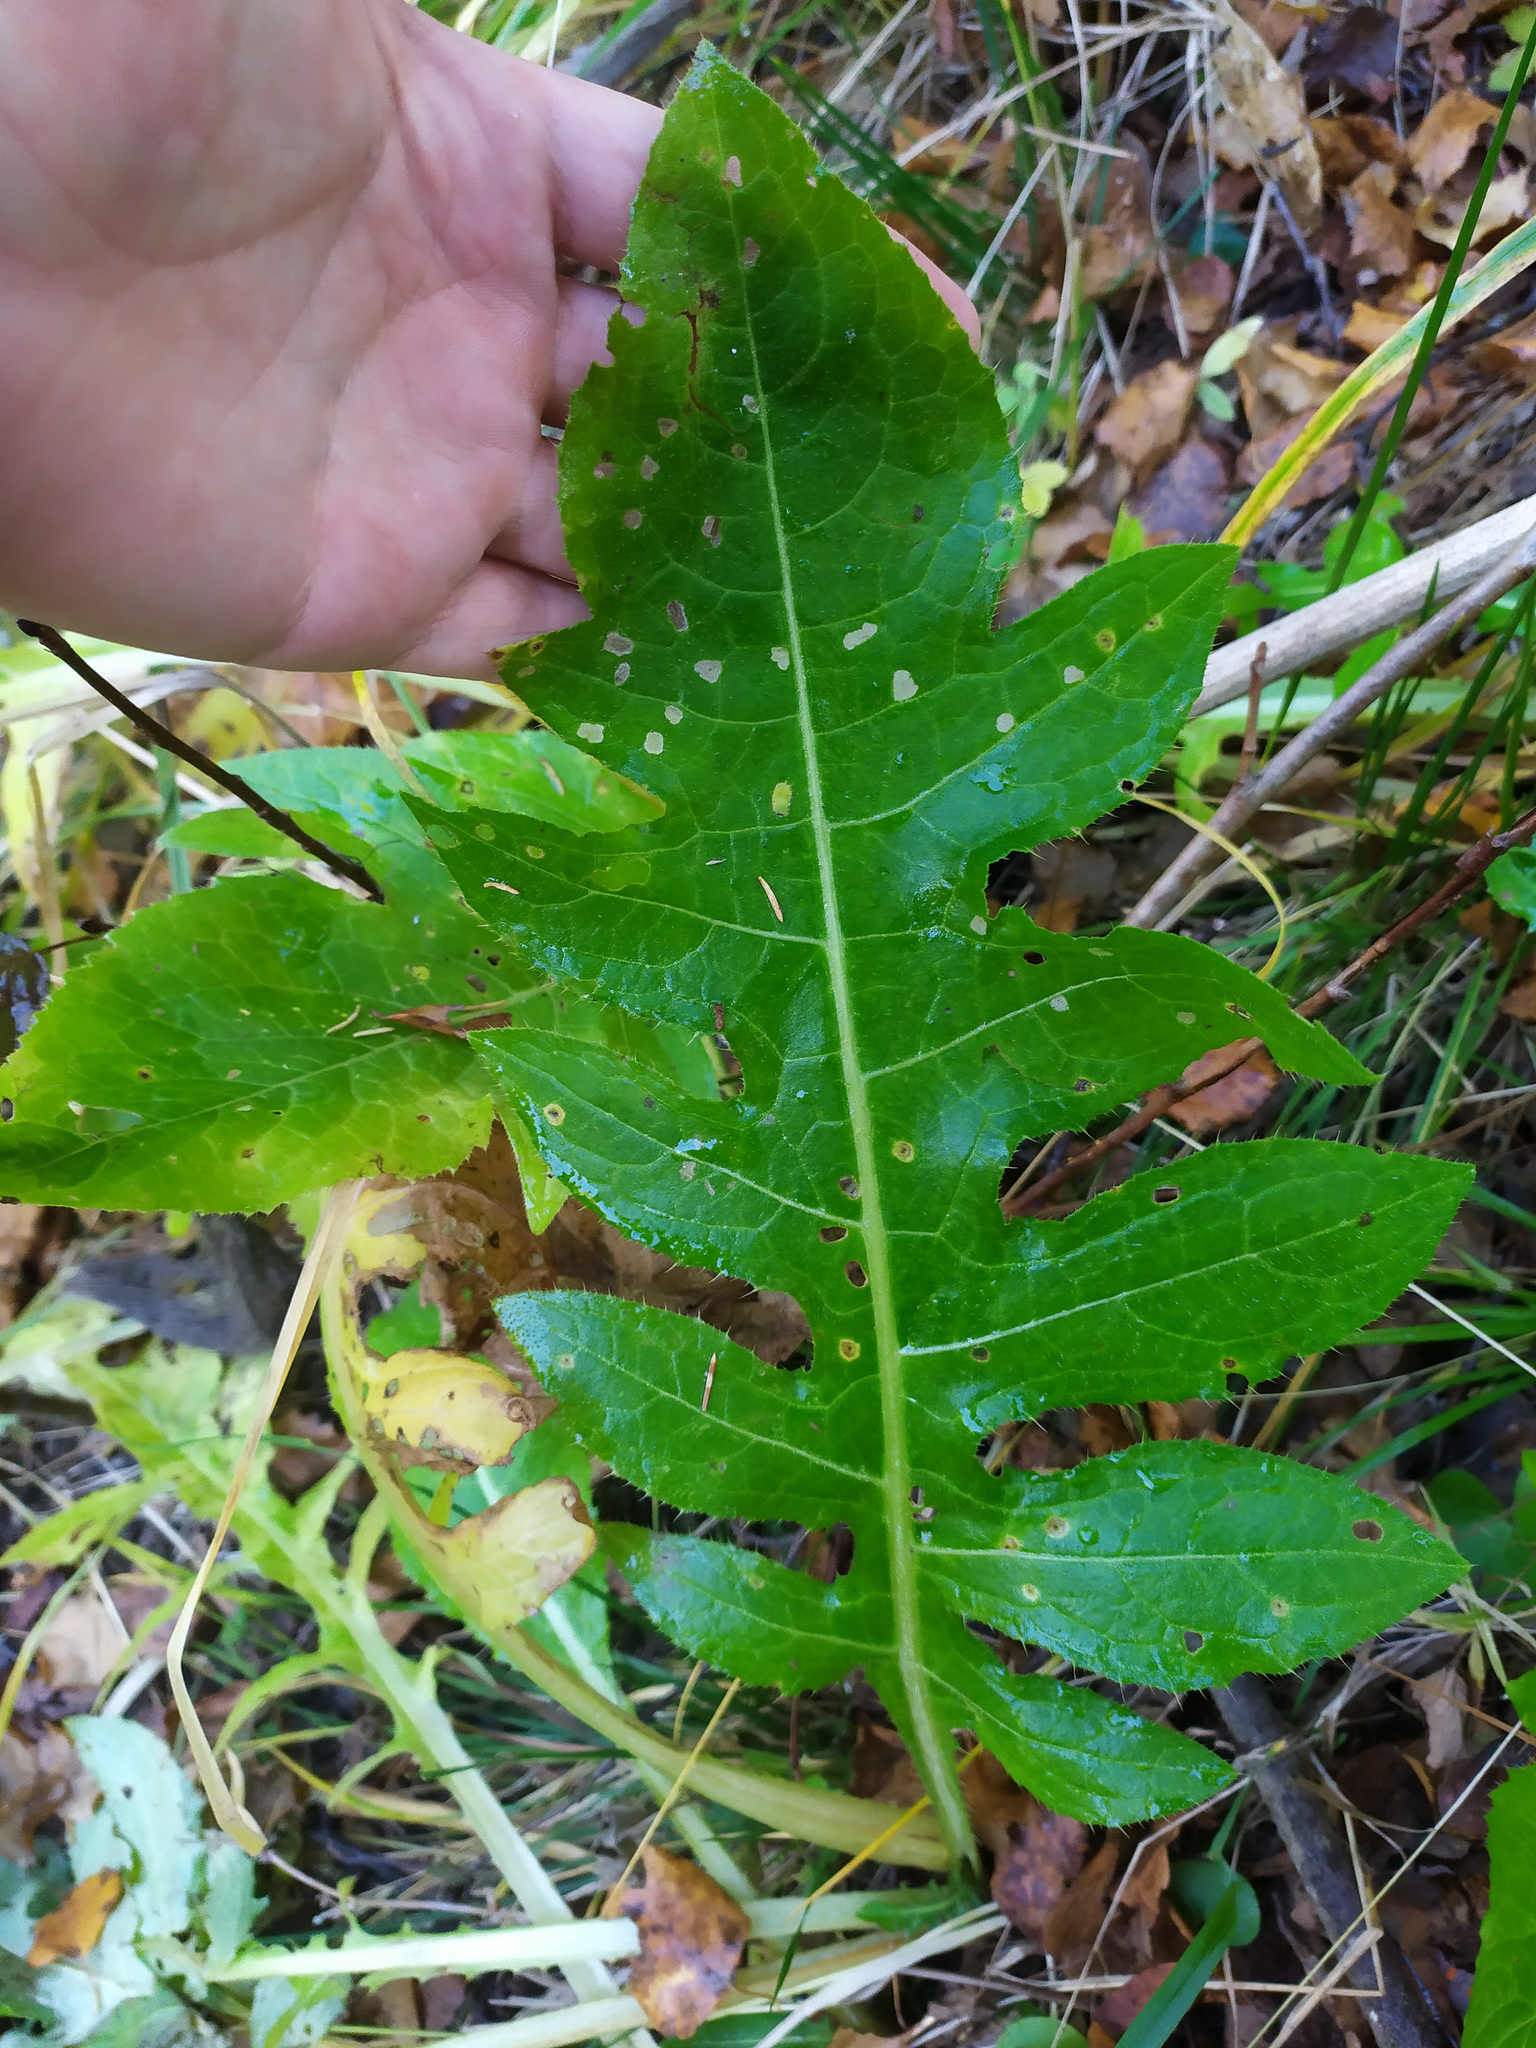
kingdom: Plantae
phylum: Tracheophyta
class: Magnoliopsida
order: Asterales
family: Asteraceae
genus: Cirsium
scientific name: Cirsium oleraceum
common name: Cabbage thistle
